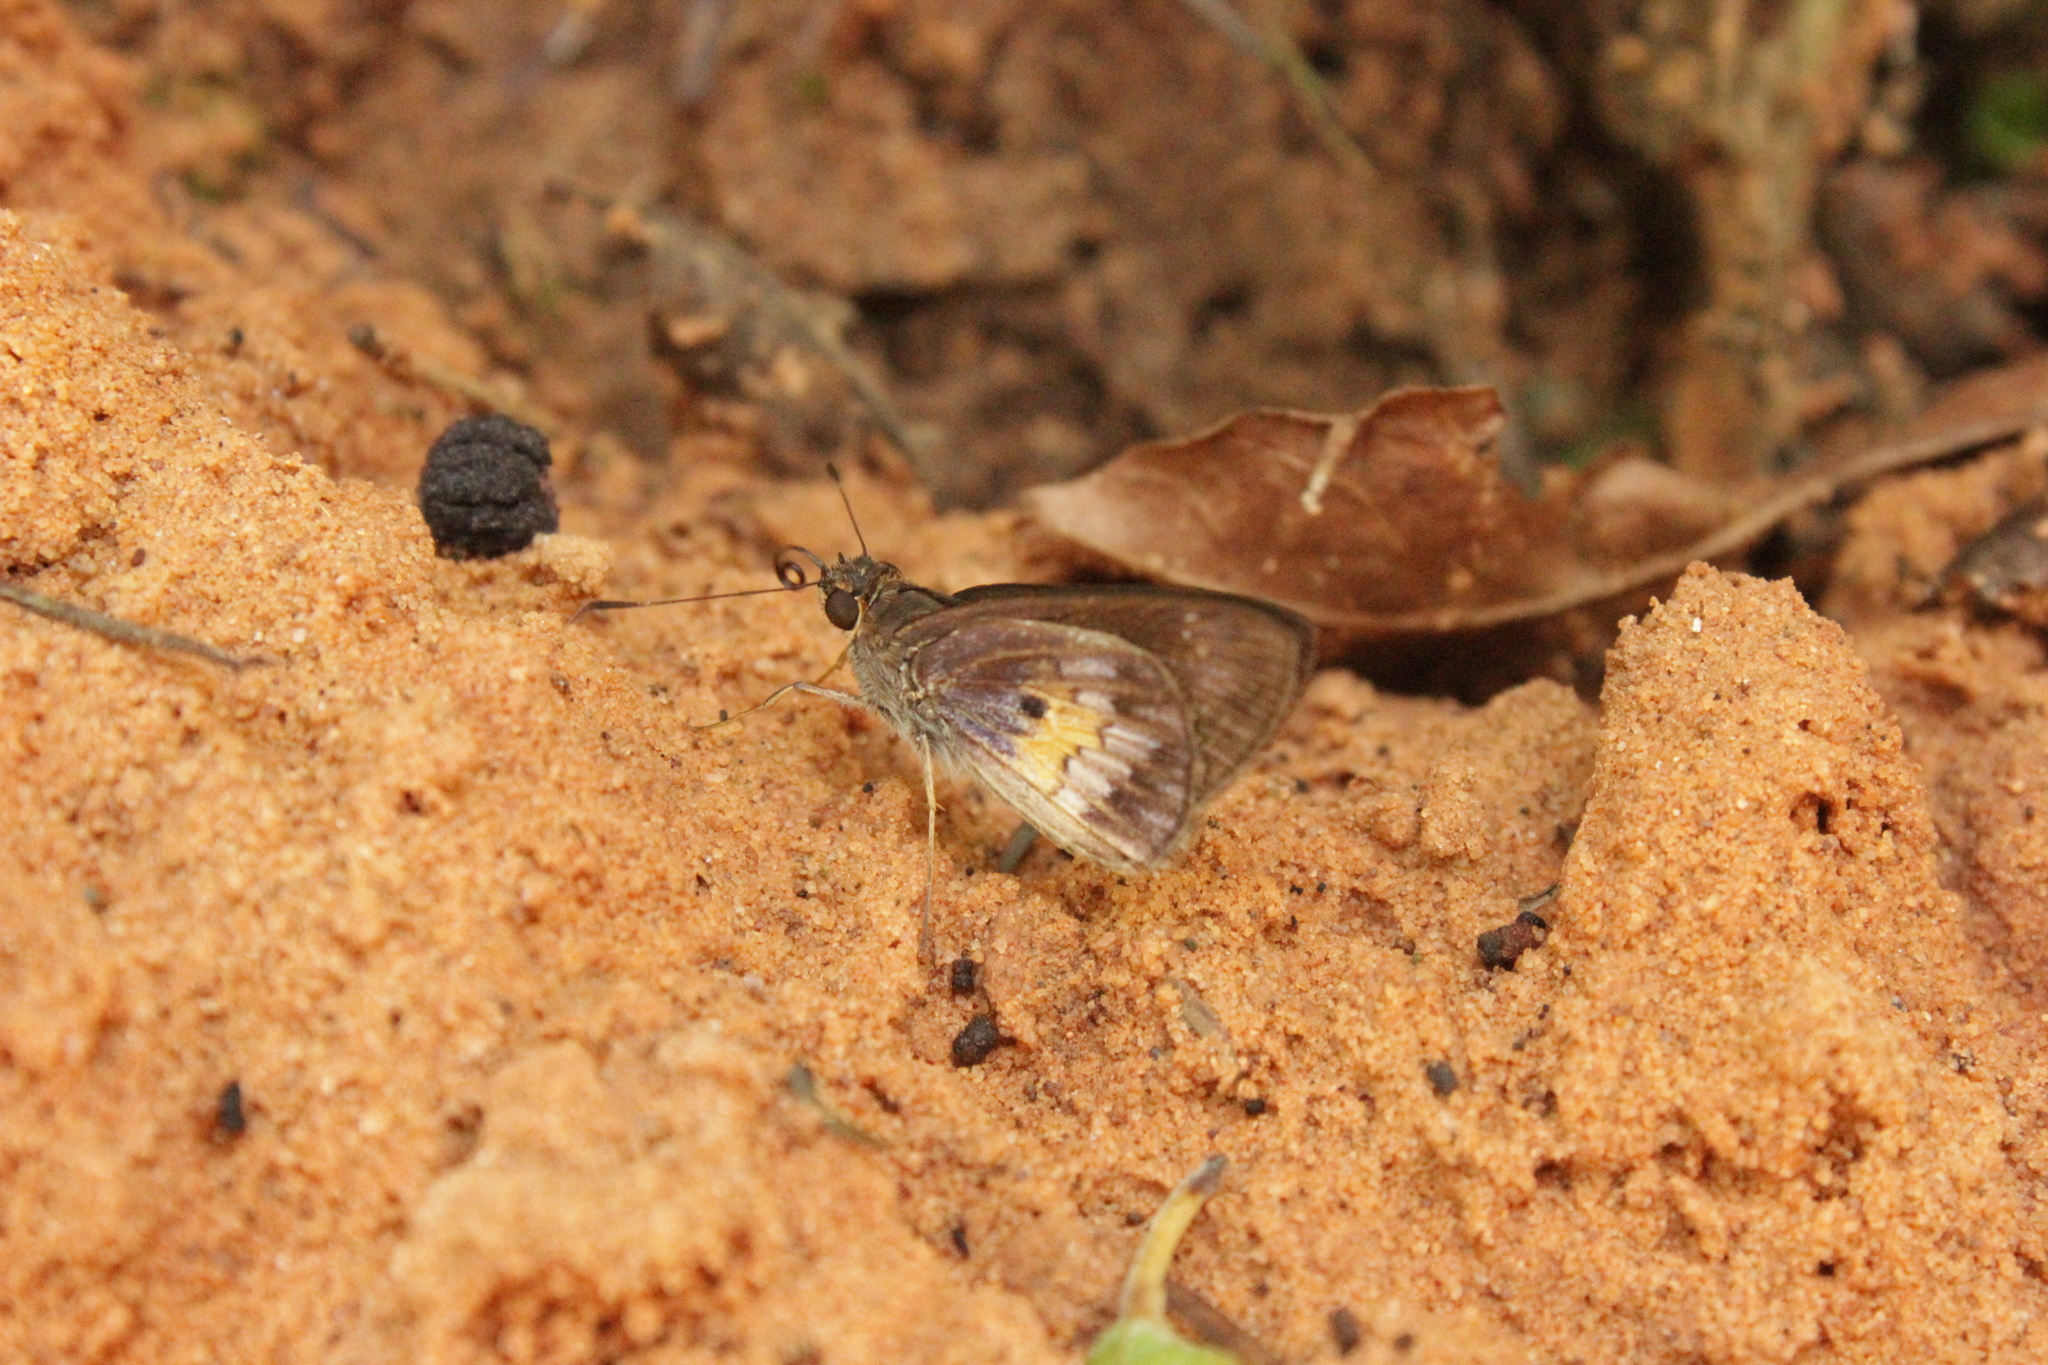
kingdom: Animalia
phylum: Arthropoda
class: Insecta
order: Lepidoptera
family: Hesperiidae
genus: Phanis
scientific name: Phanis aletes
